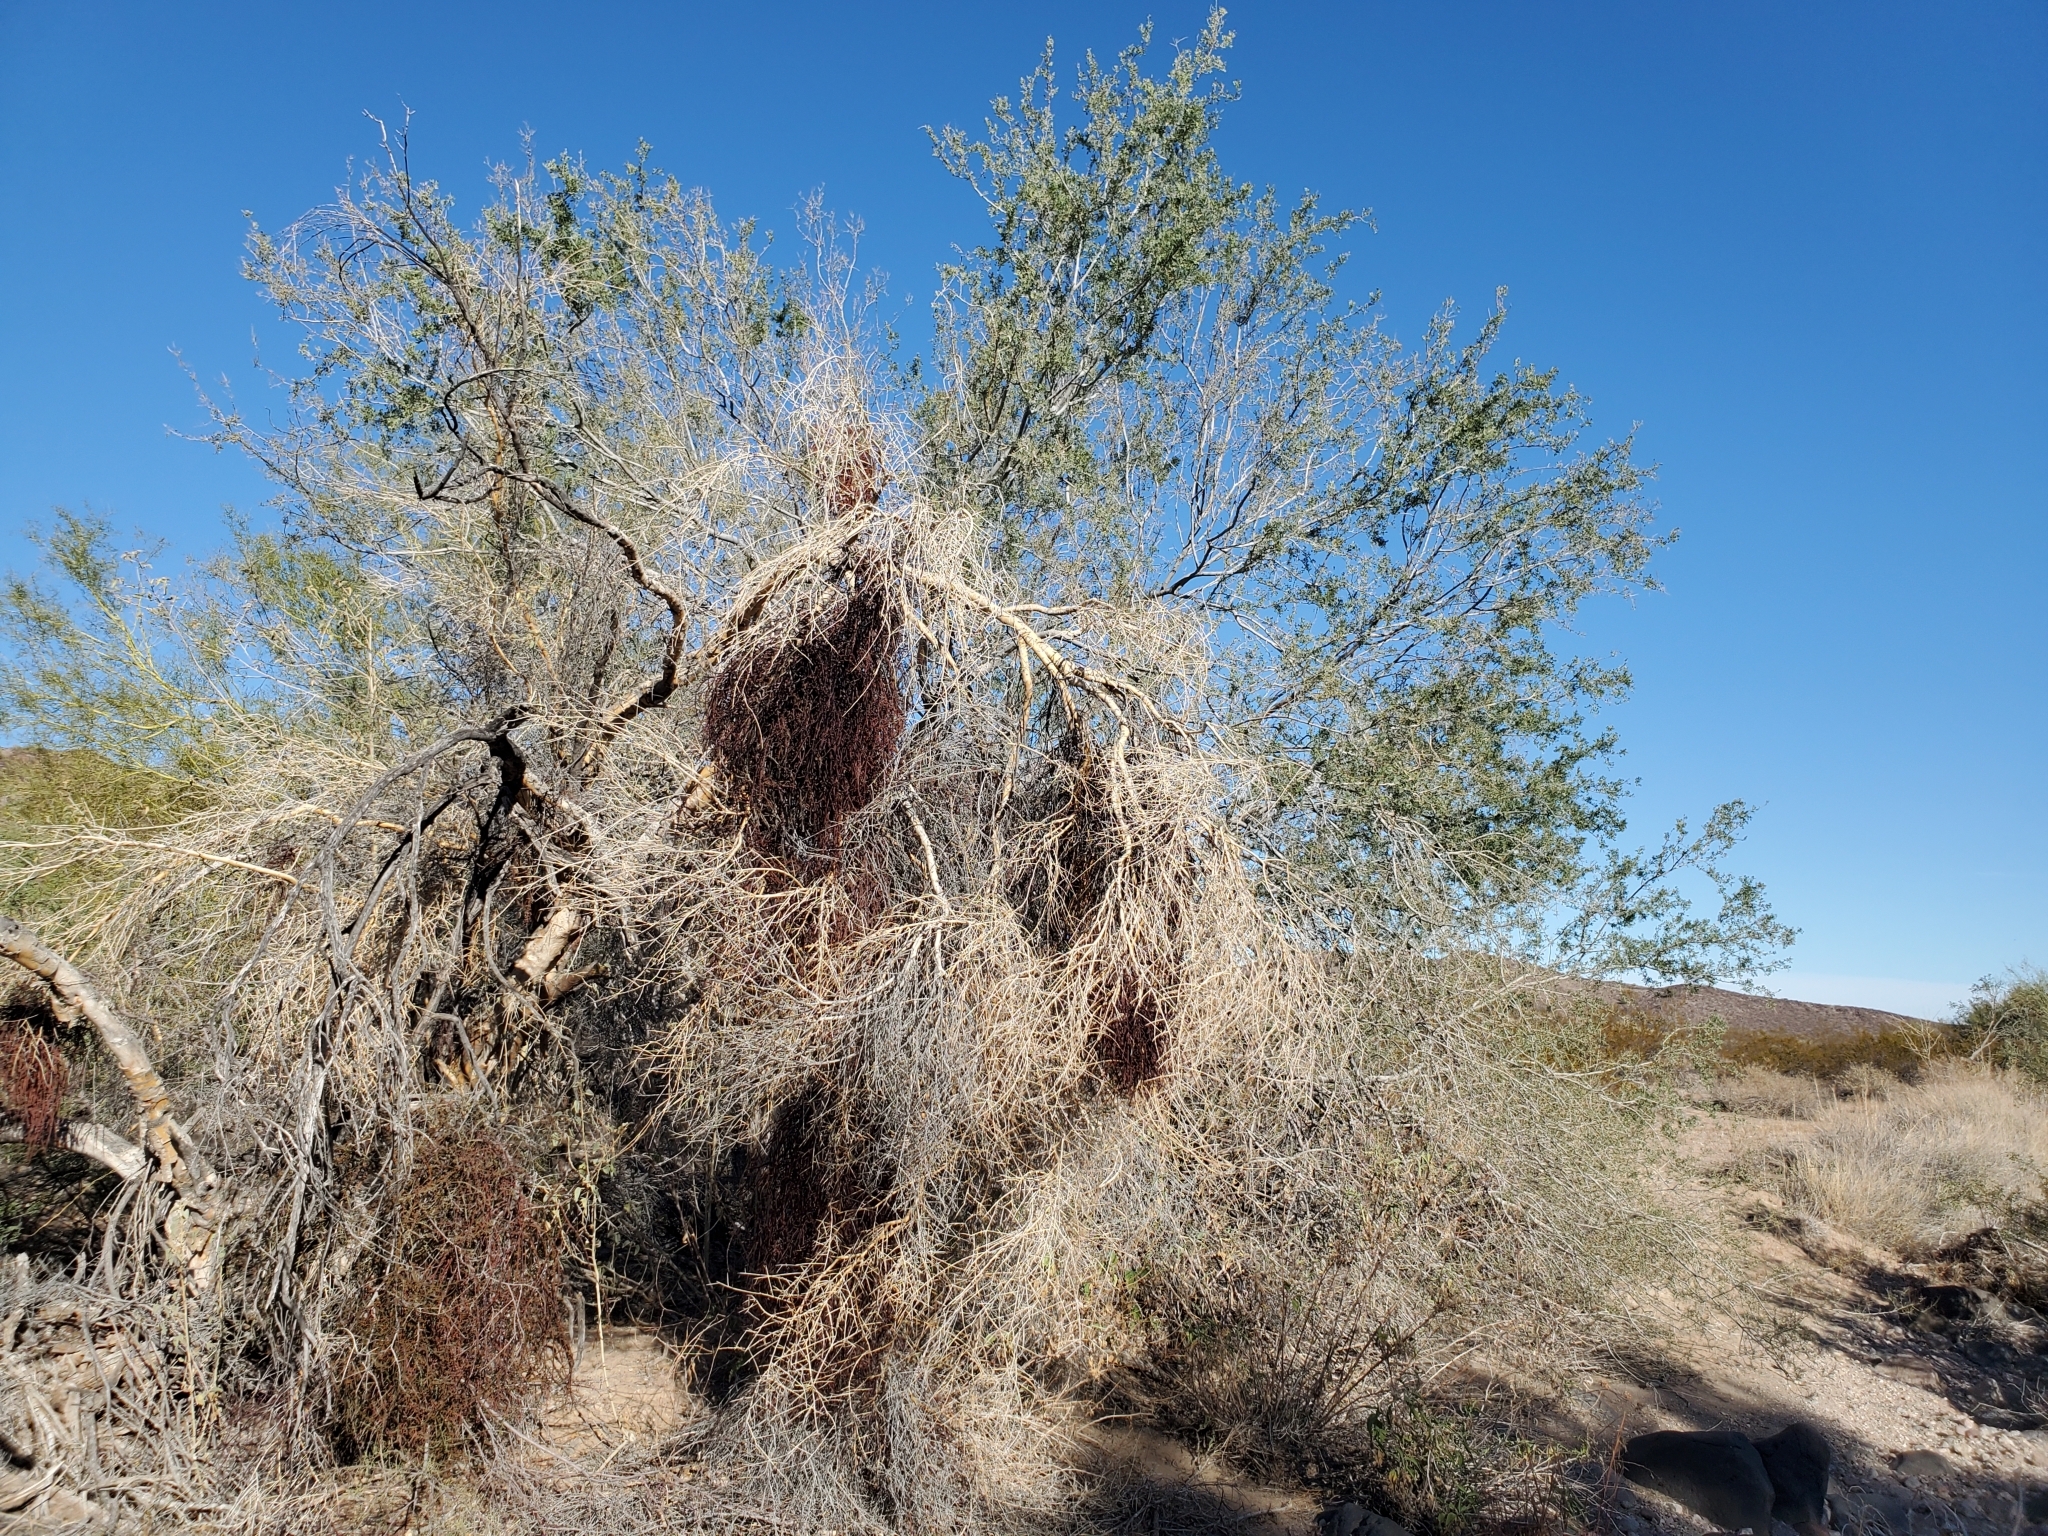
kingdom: Plantae
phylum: Tracheophyta
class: Magnoliopsida
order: Santalales
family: Viscaceae
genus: Phoradendron
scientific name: Phoradendron californicum
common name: Acacia mistletoe
